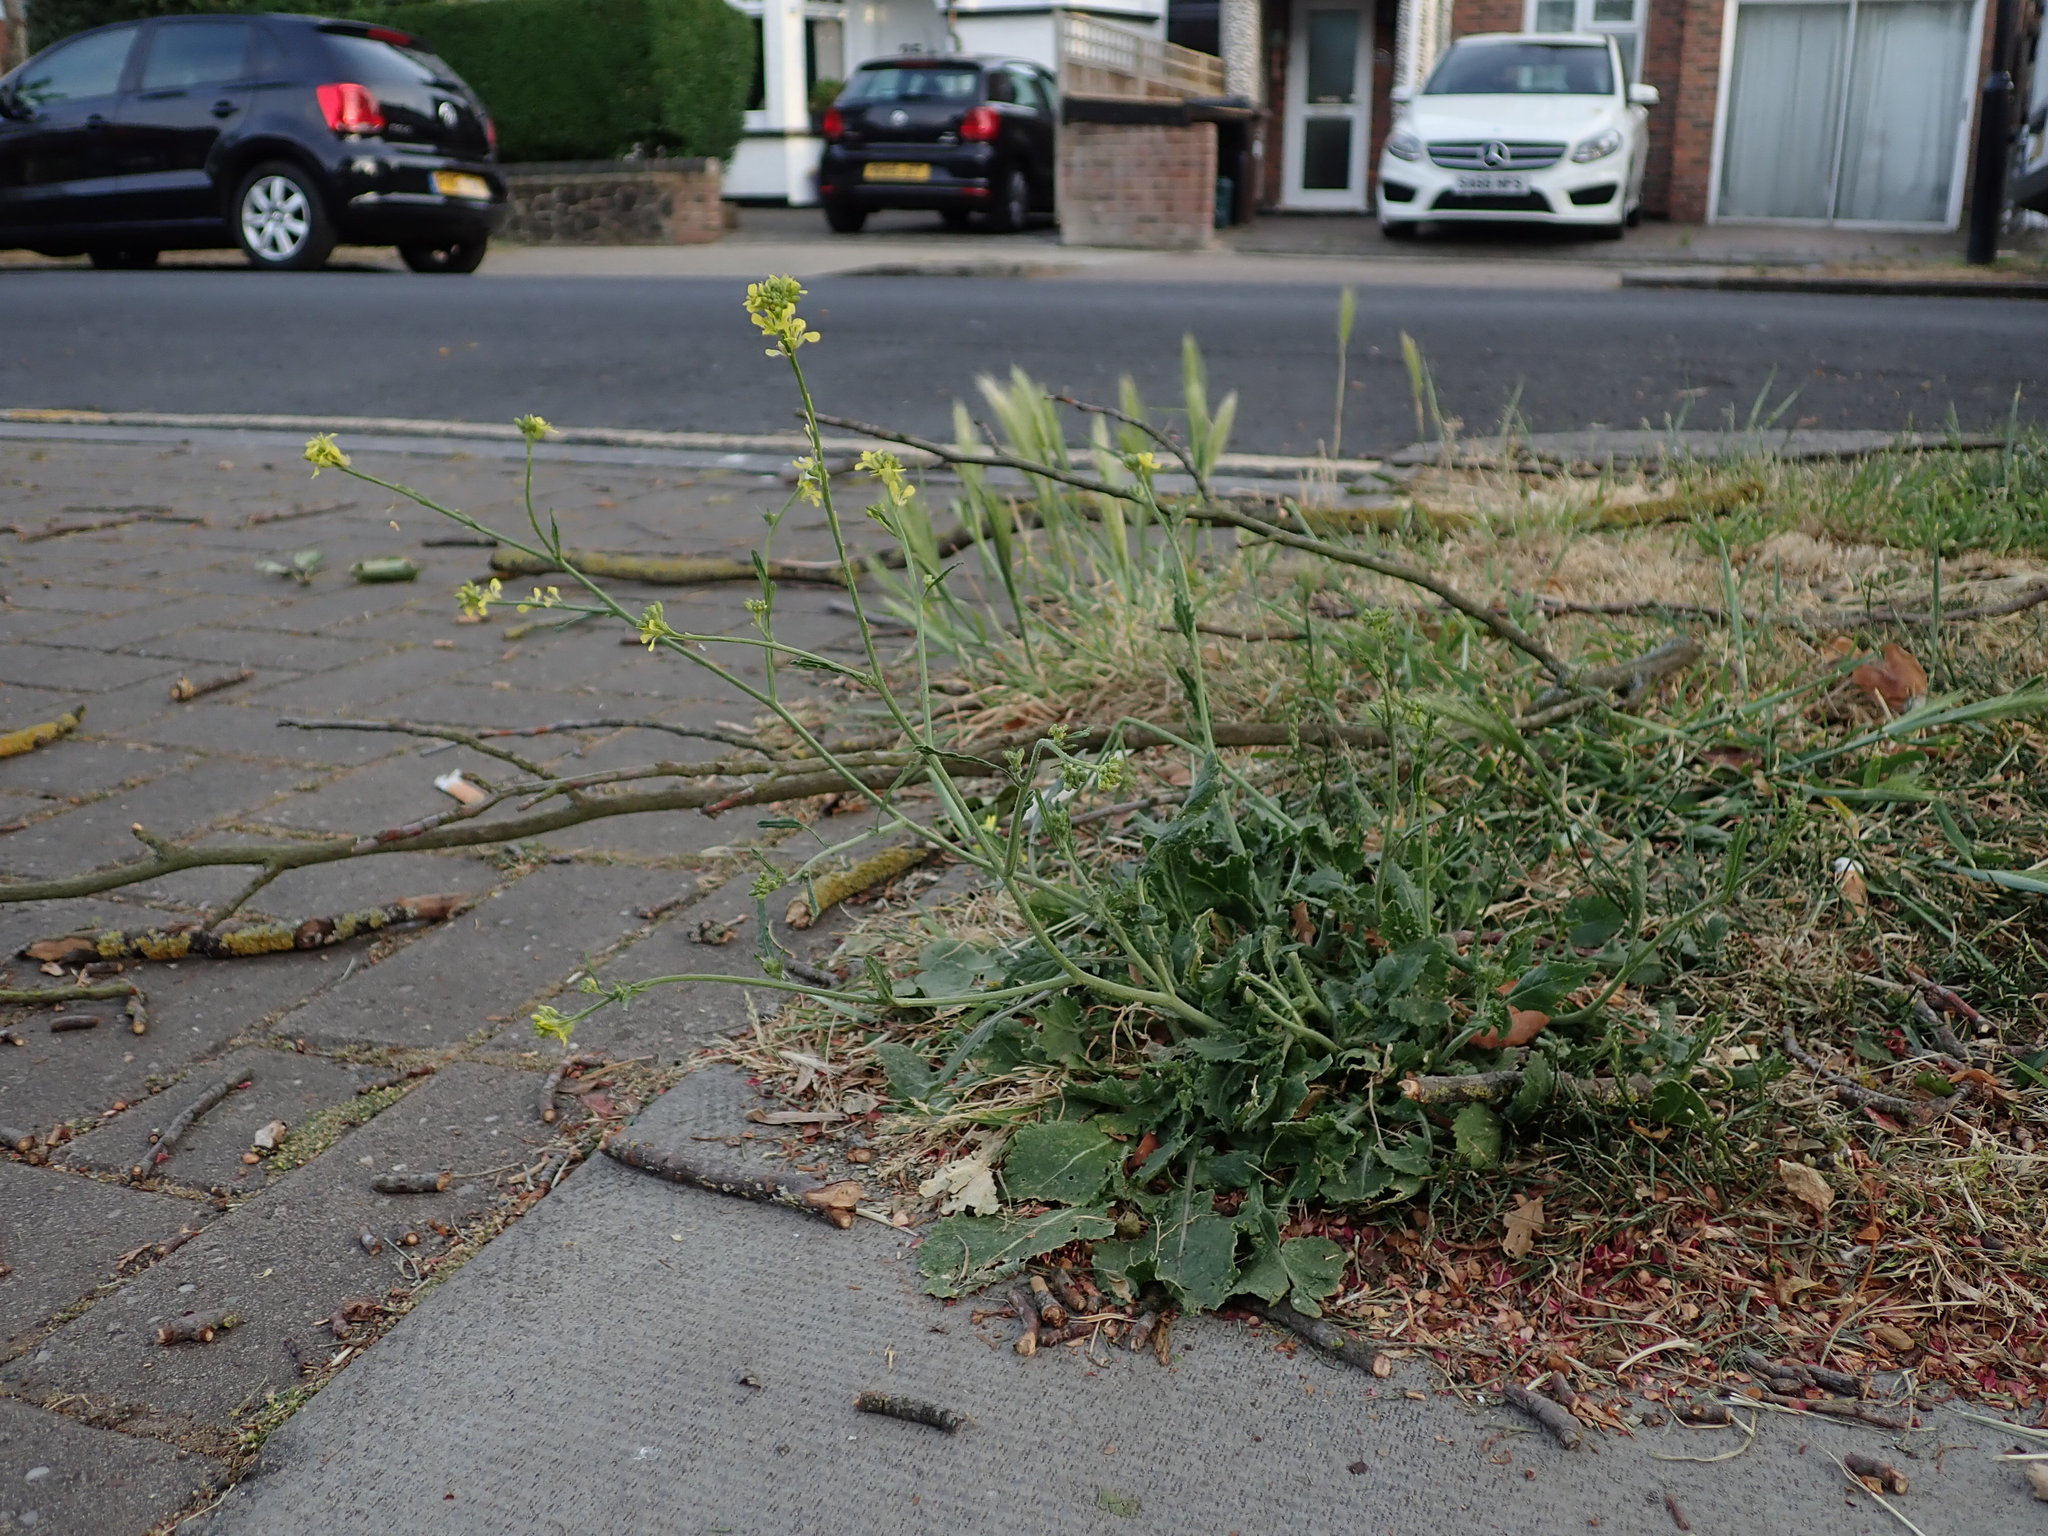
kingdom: Plantae
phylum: Tracheophyta
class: Magnoliopsida
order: Brassicales
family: Brassicaceae
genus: Hirschfeldia
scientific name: Hirschfeldia incana
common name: Hoary mustard
